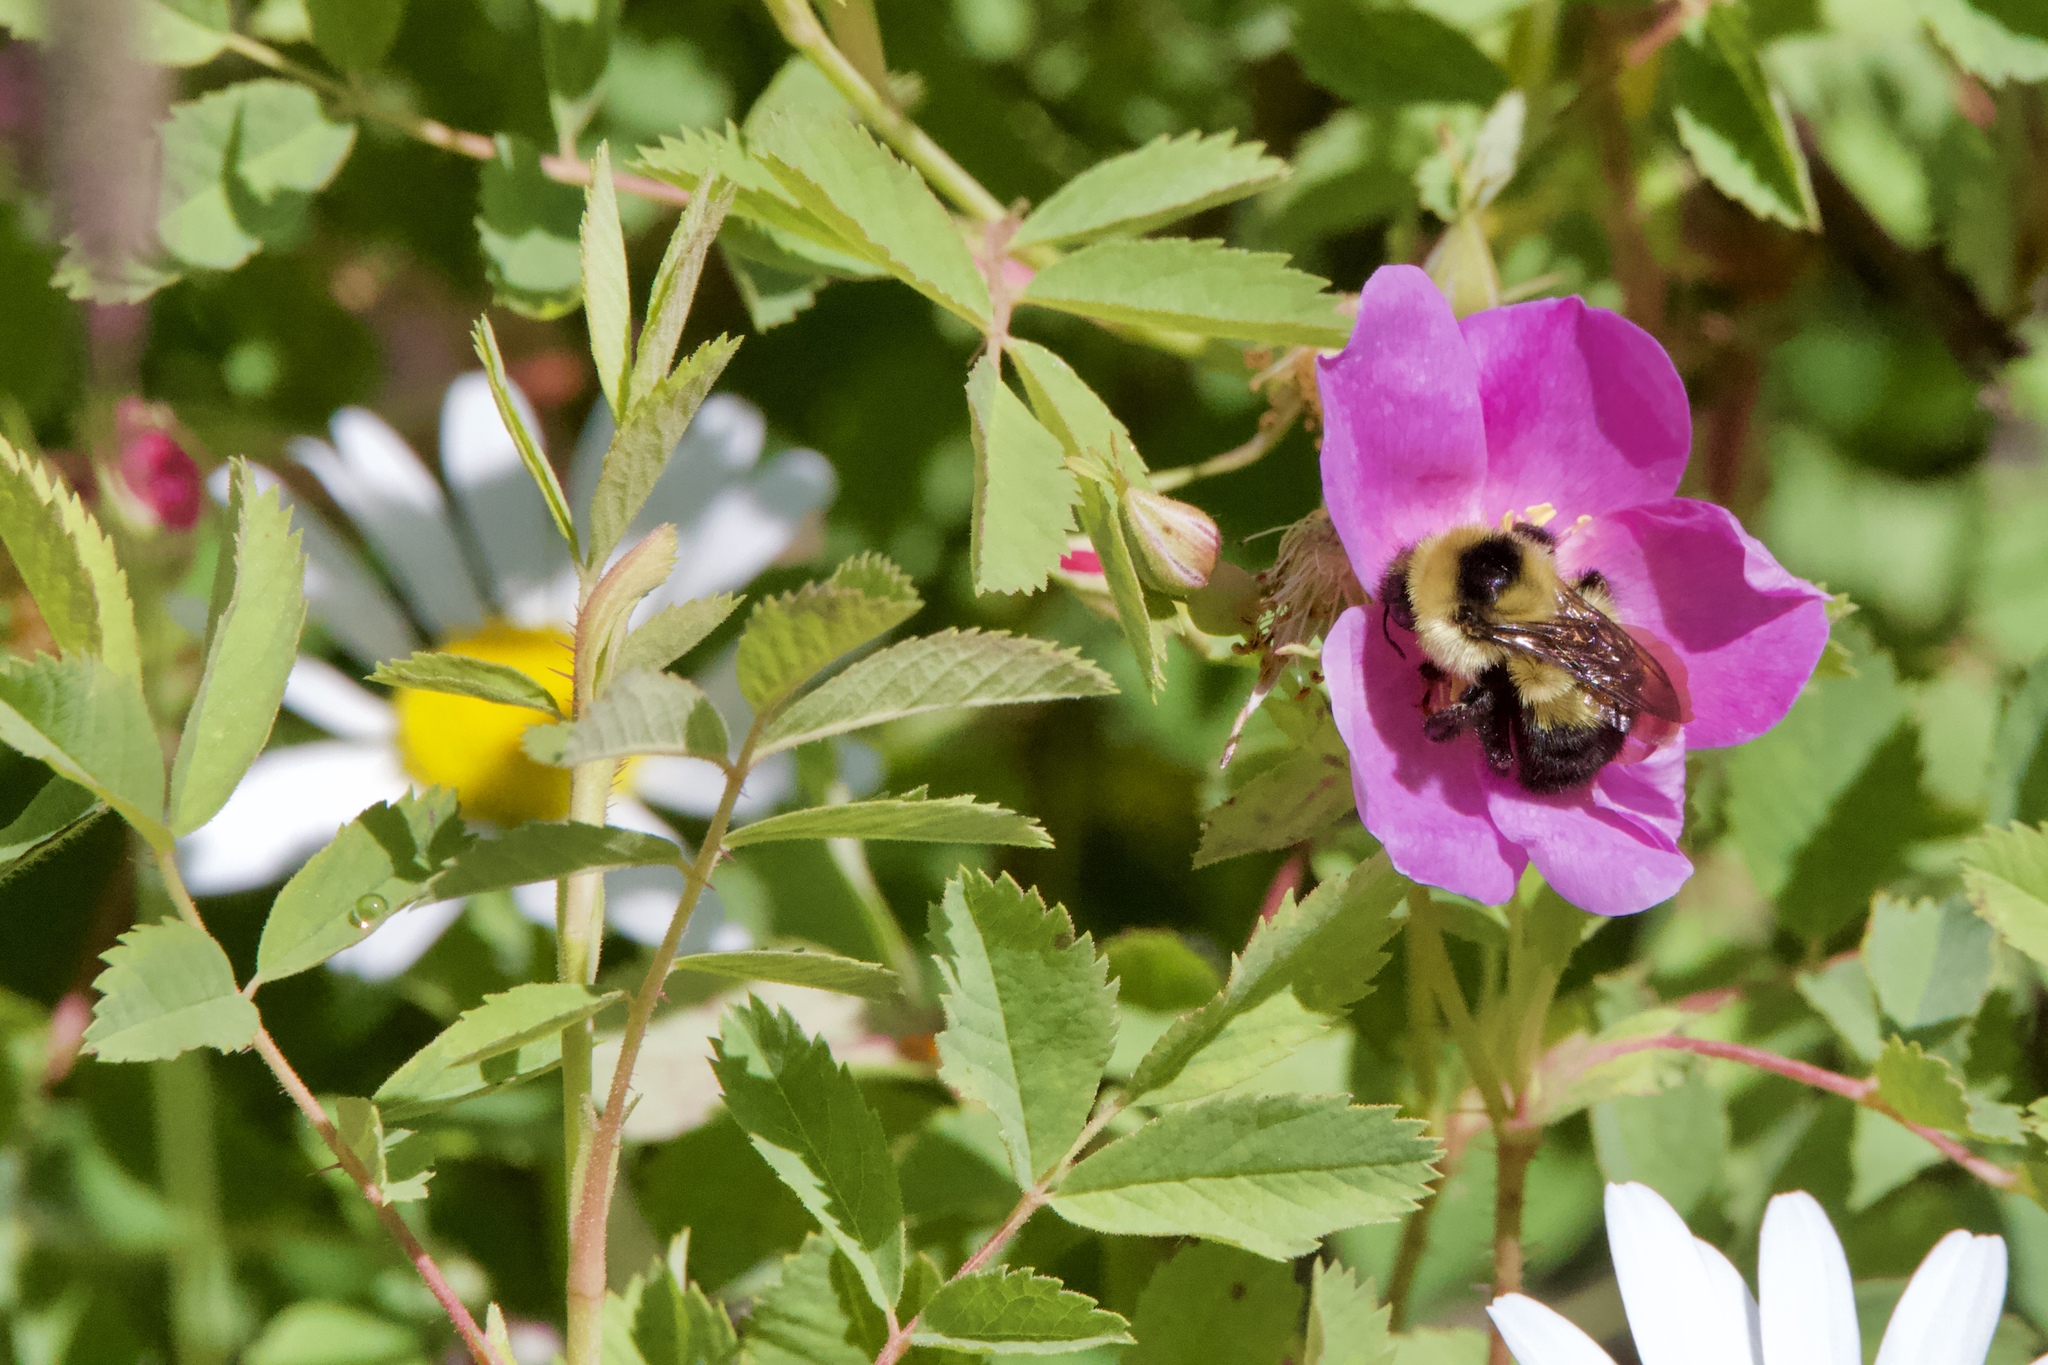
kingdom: Animalia
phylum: Arthropoda
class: Insecta
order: Hymenoptera
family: Apidae
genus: Bombus
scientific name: Bombus rufocinctus
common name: Red-belted bumble bee
